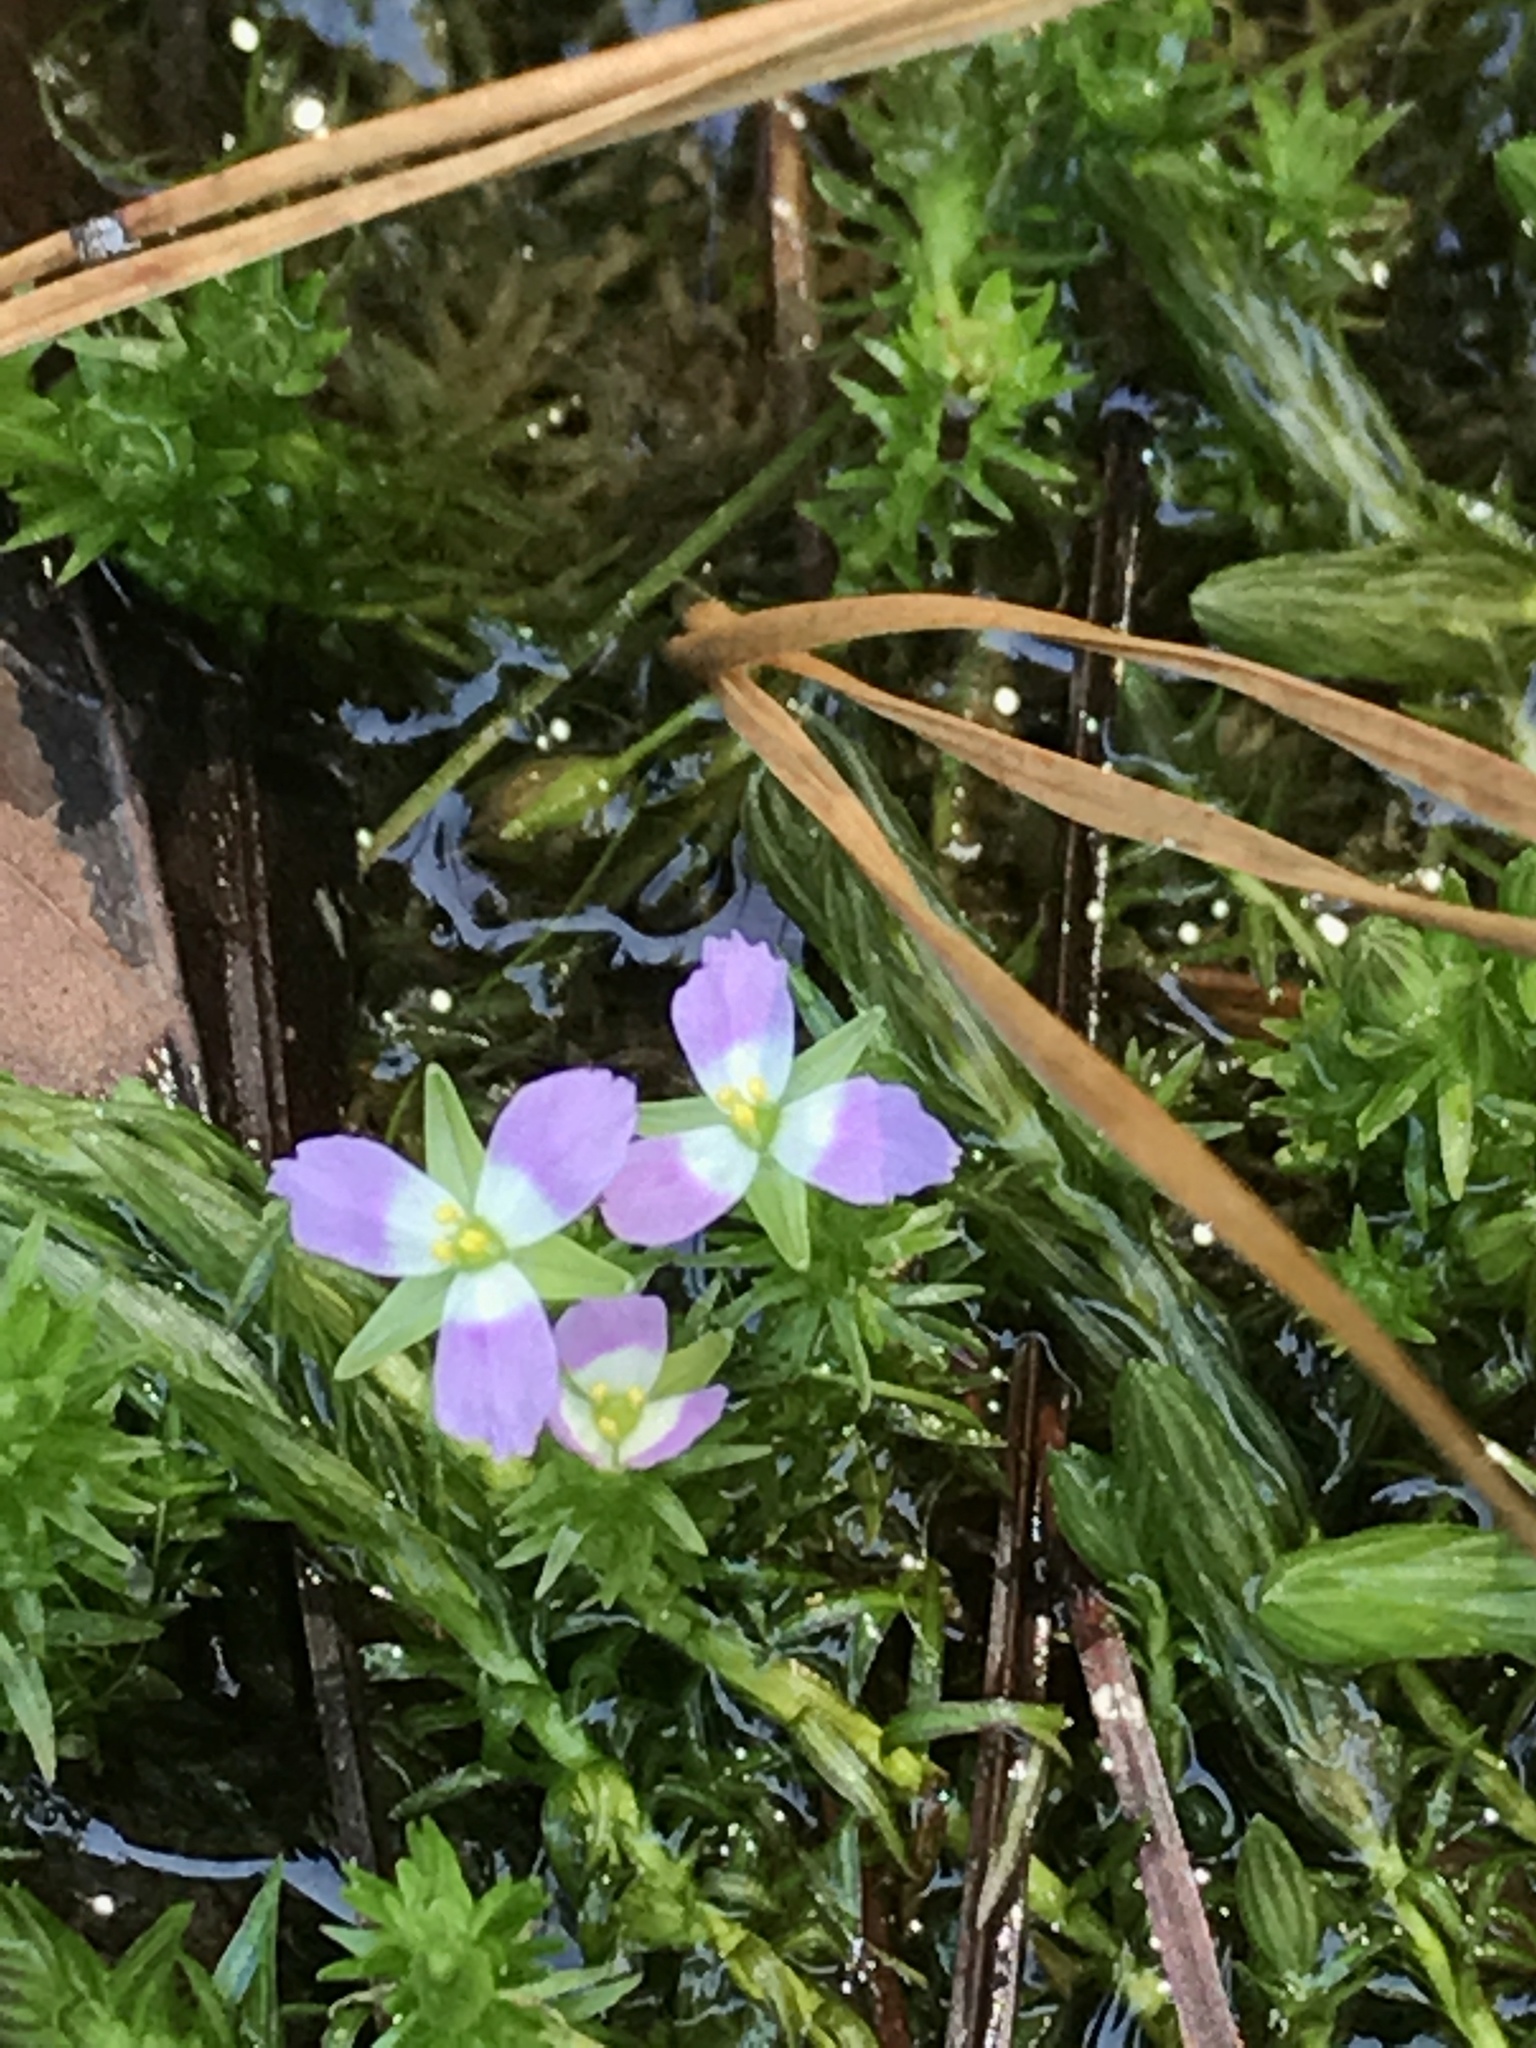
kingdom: Plantae
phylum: Tracheophyta
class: Liliopsida
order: Poales
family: Mayacaceae
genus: Mayaca
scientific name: Mayaca fluviatilis
